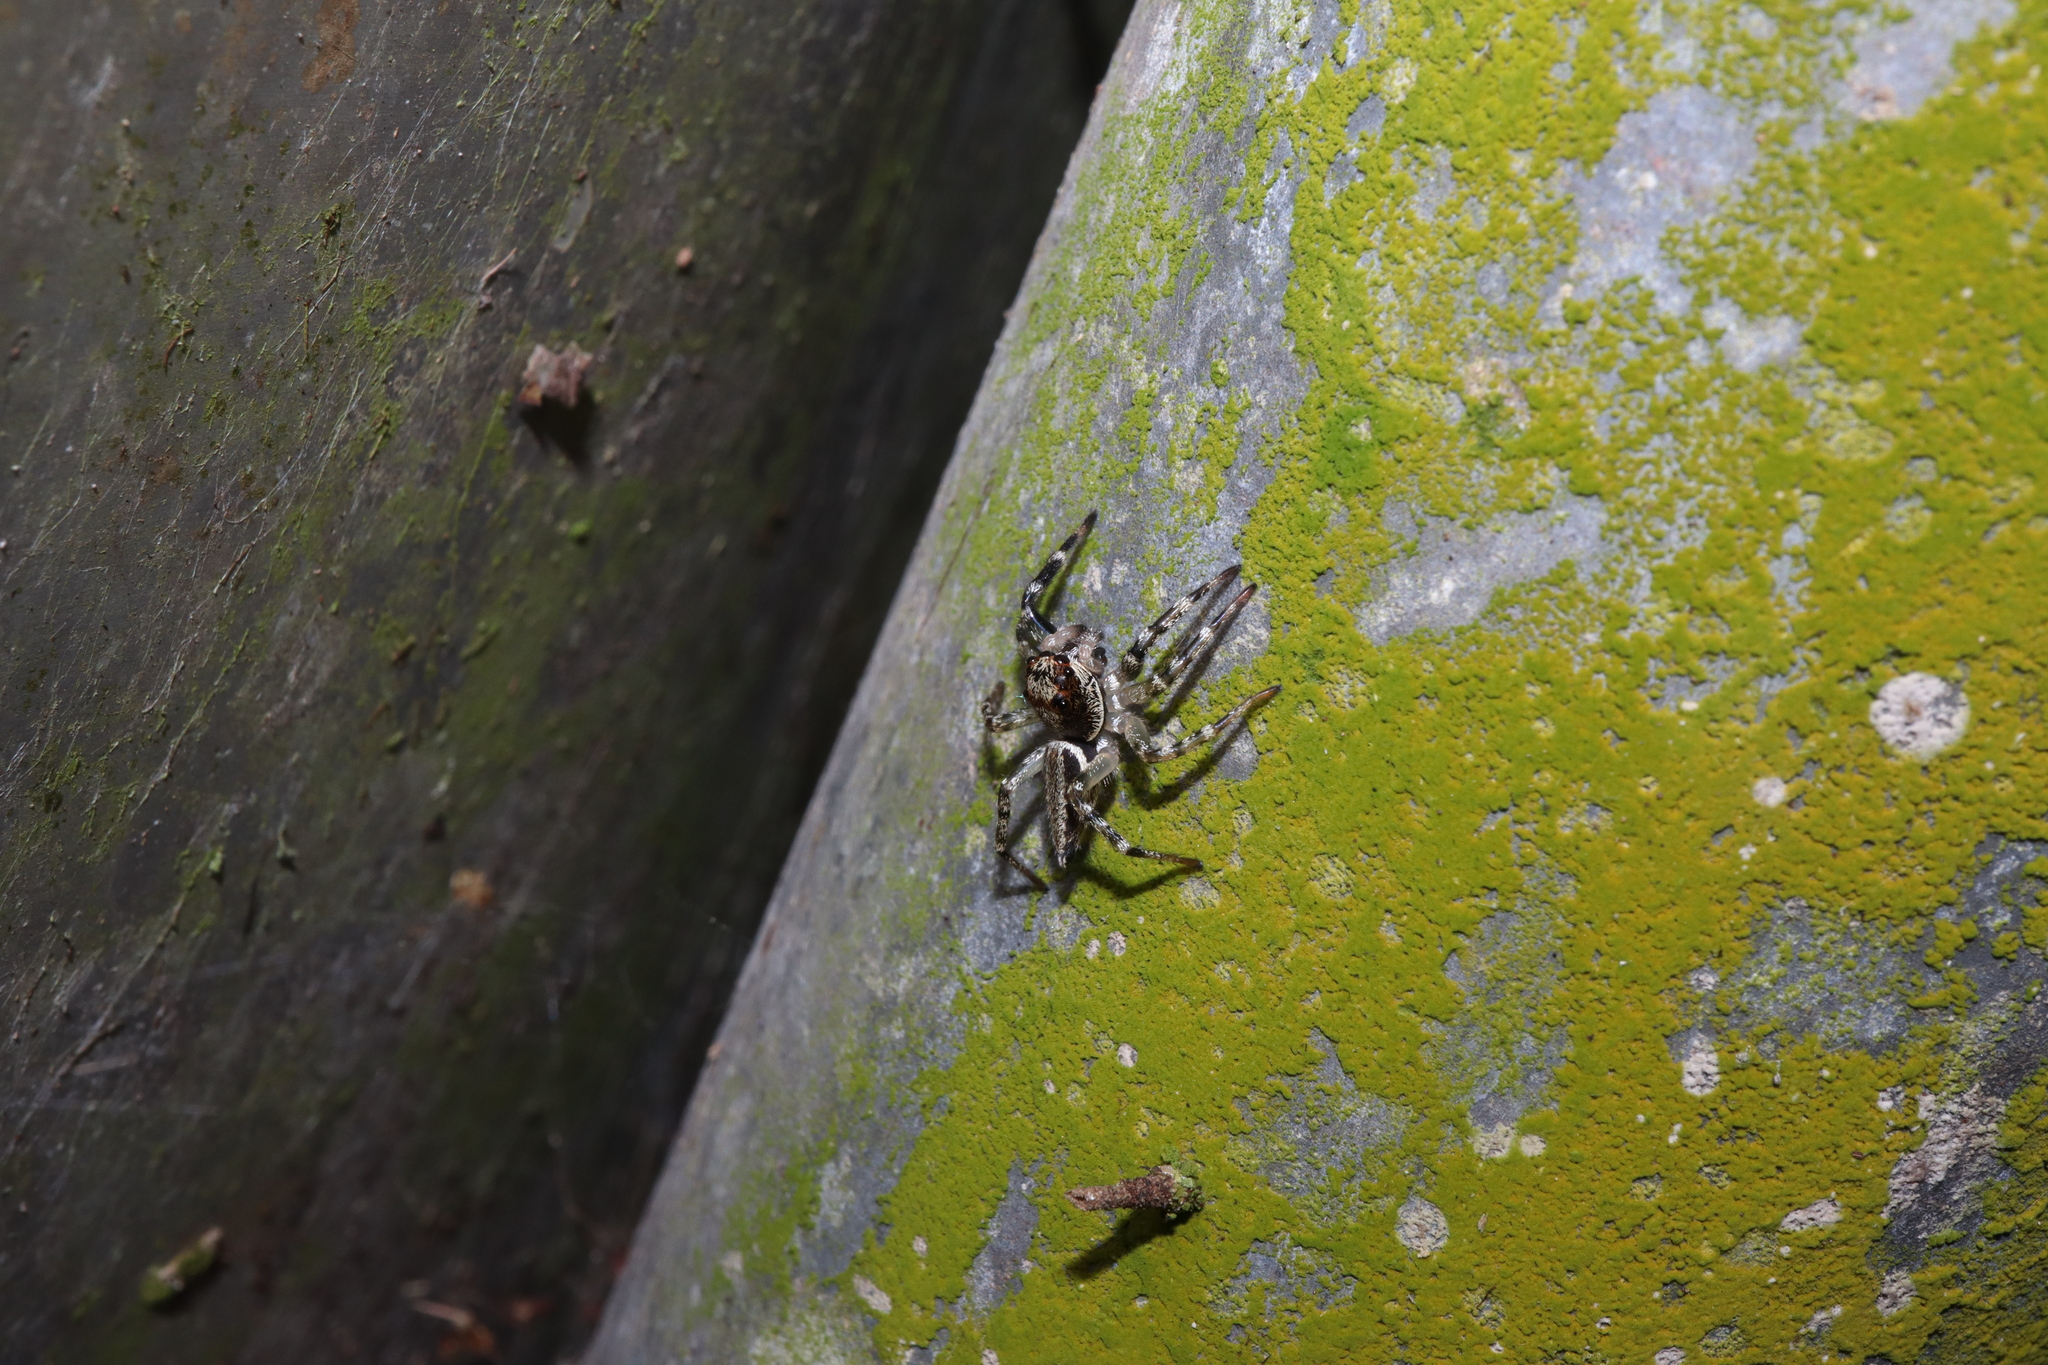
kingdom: Animalia
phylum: Arthropoda
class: Arachnida
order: Araneae
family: Salticidae
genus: Zenodorus
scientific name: Zenodorus swiftorum
